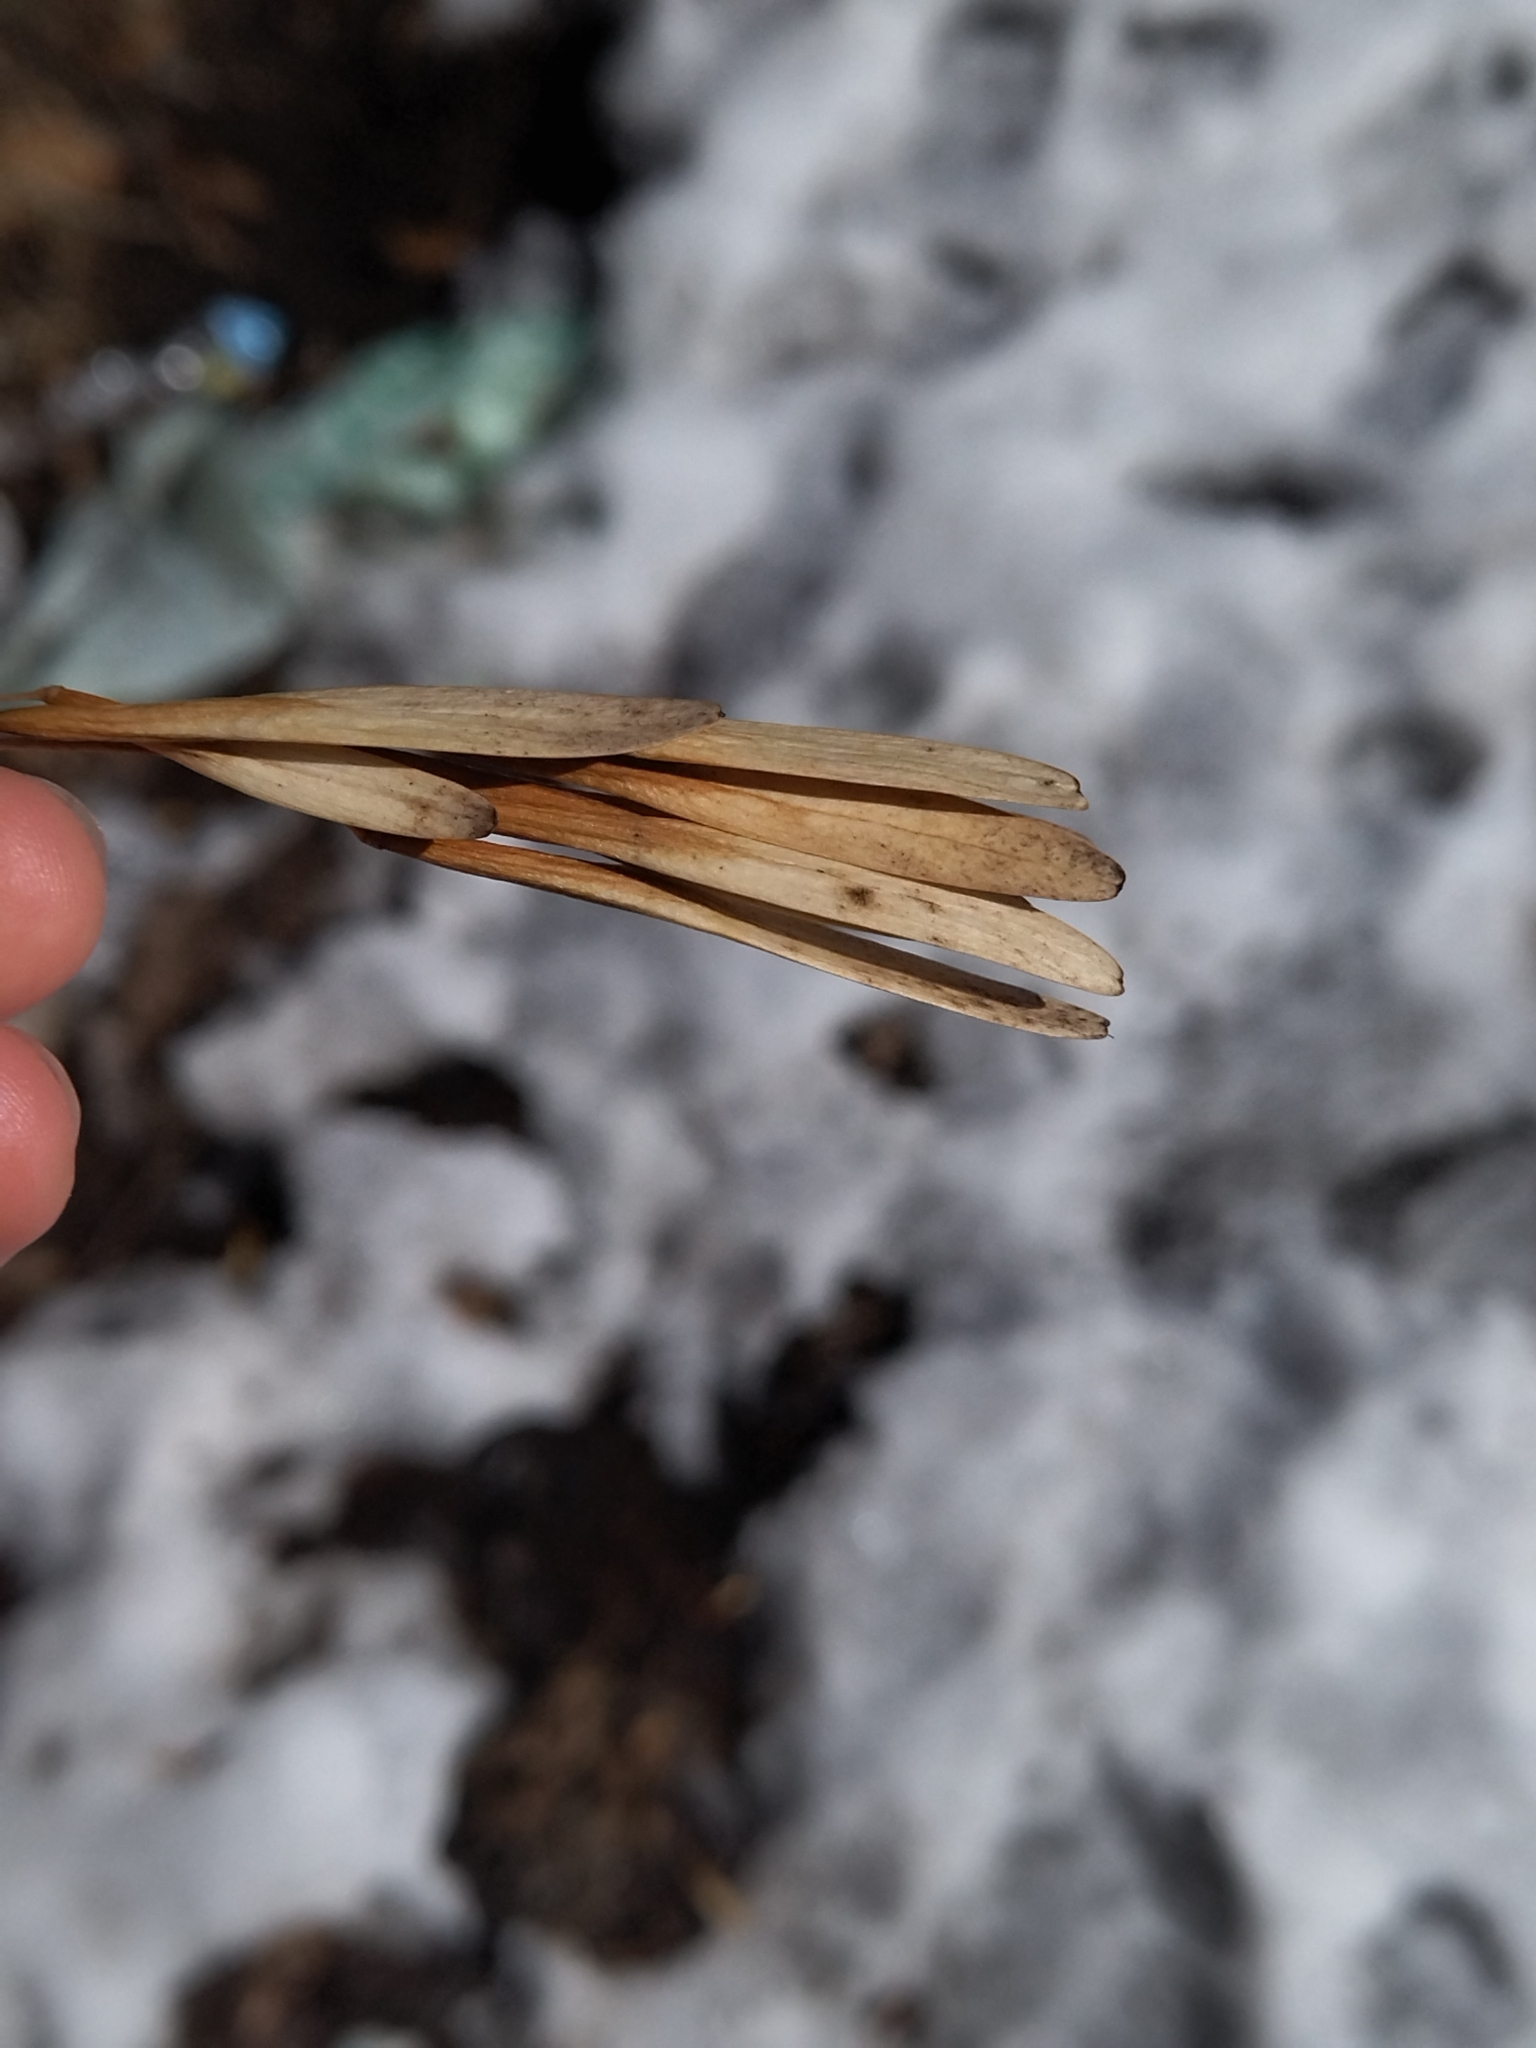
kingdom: Plantae
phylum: Tracheophyta
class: Magnoliopsida
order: Lamiales
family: Oleaceae
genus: Fraxinus
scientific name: Fraxinus pennsylvanica
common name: Green ash
